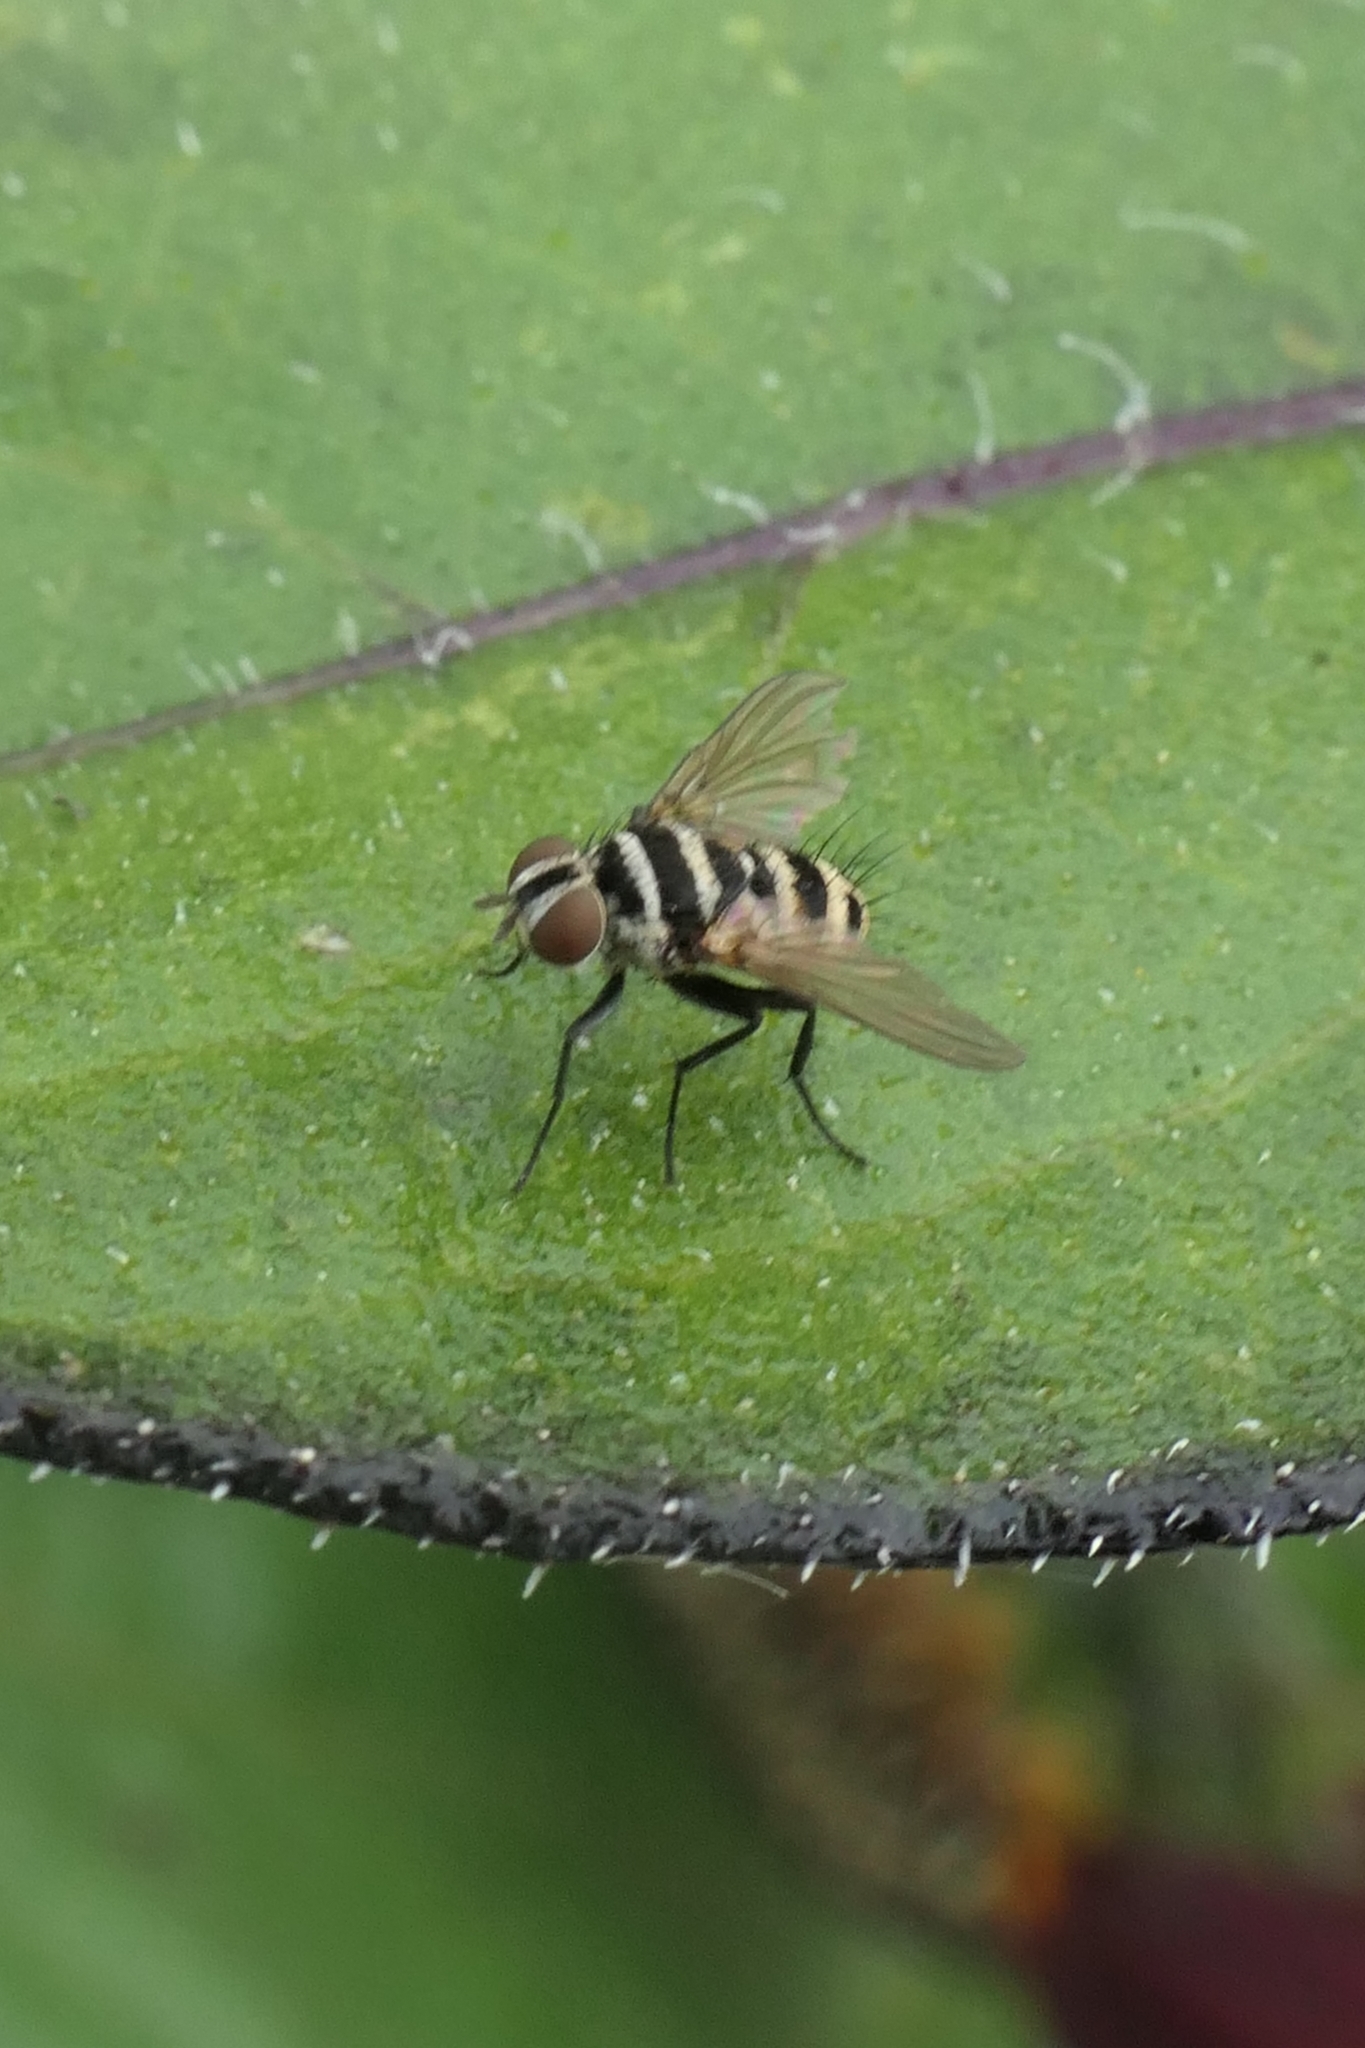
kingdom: Animalia
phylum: Arthropoda
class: Insecta
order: Diptera
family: Tachinidae
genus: Trigonospila
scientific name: Trigonospila brevifacies
